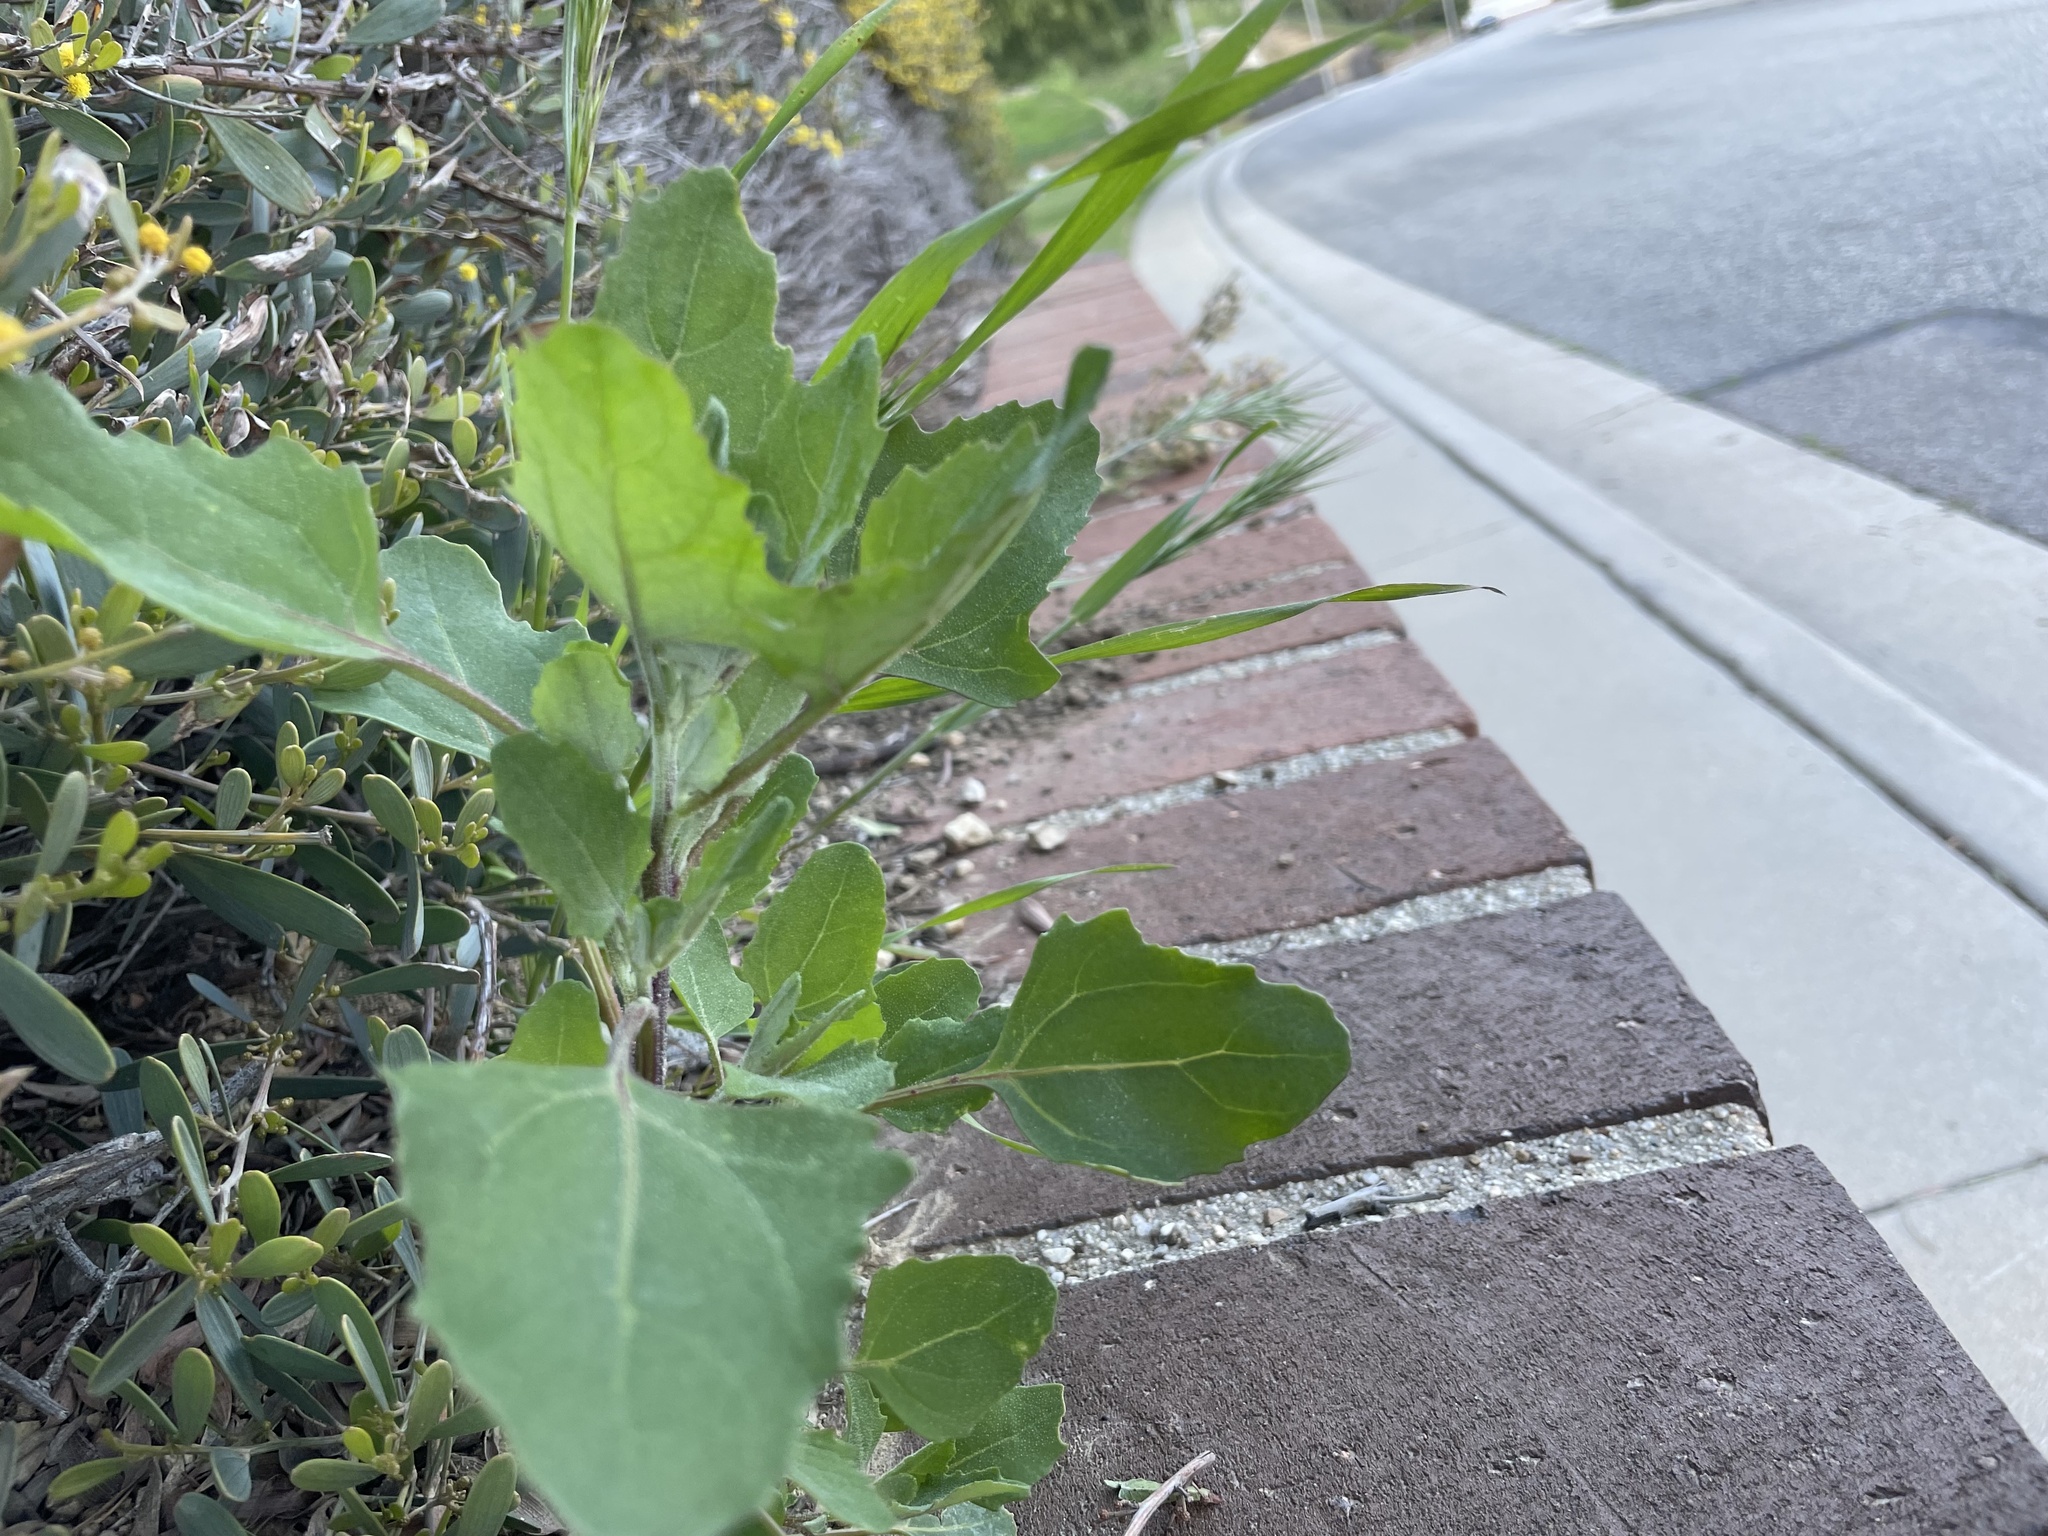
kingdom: Plantae
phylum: Tracheophyta
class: Magnoliopsida
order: Caryophyllales
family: Amaranthaceae
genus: Chenopodium
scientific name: Chenopodium album
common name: Fat-hen
